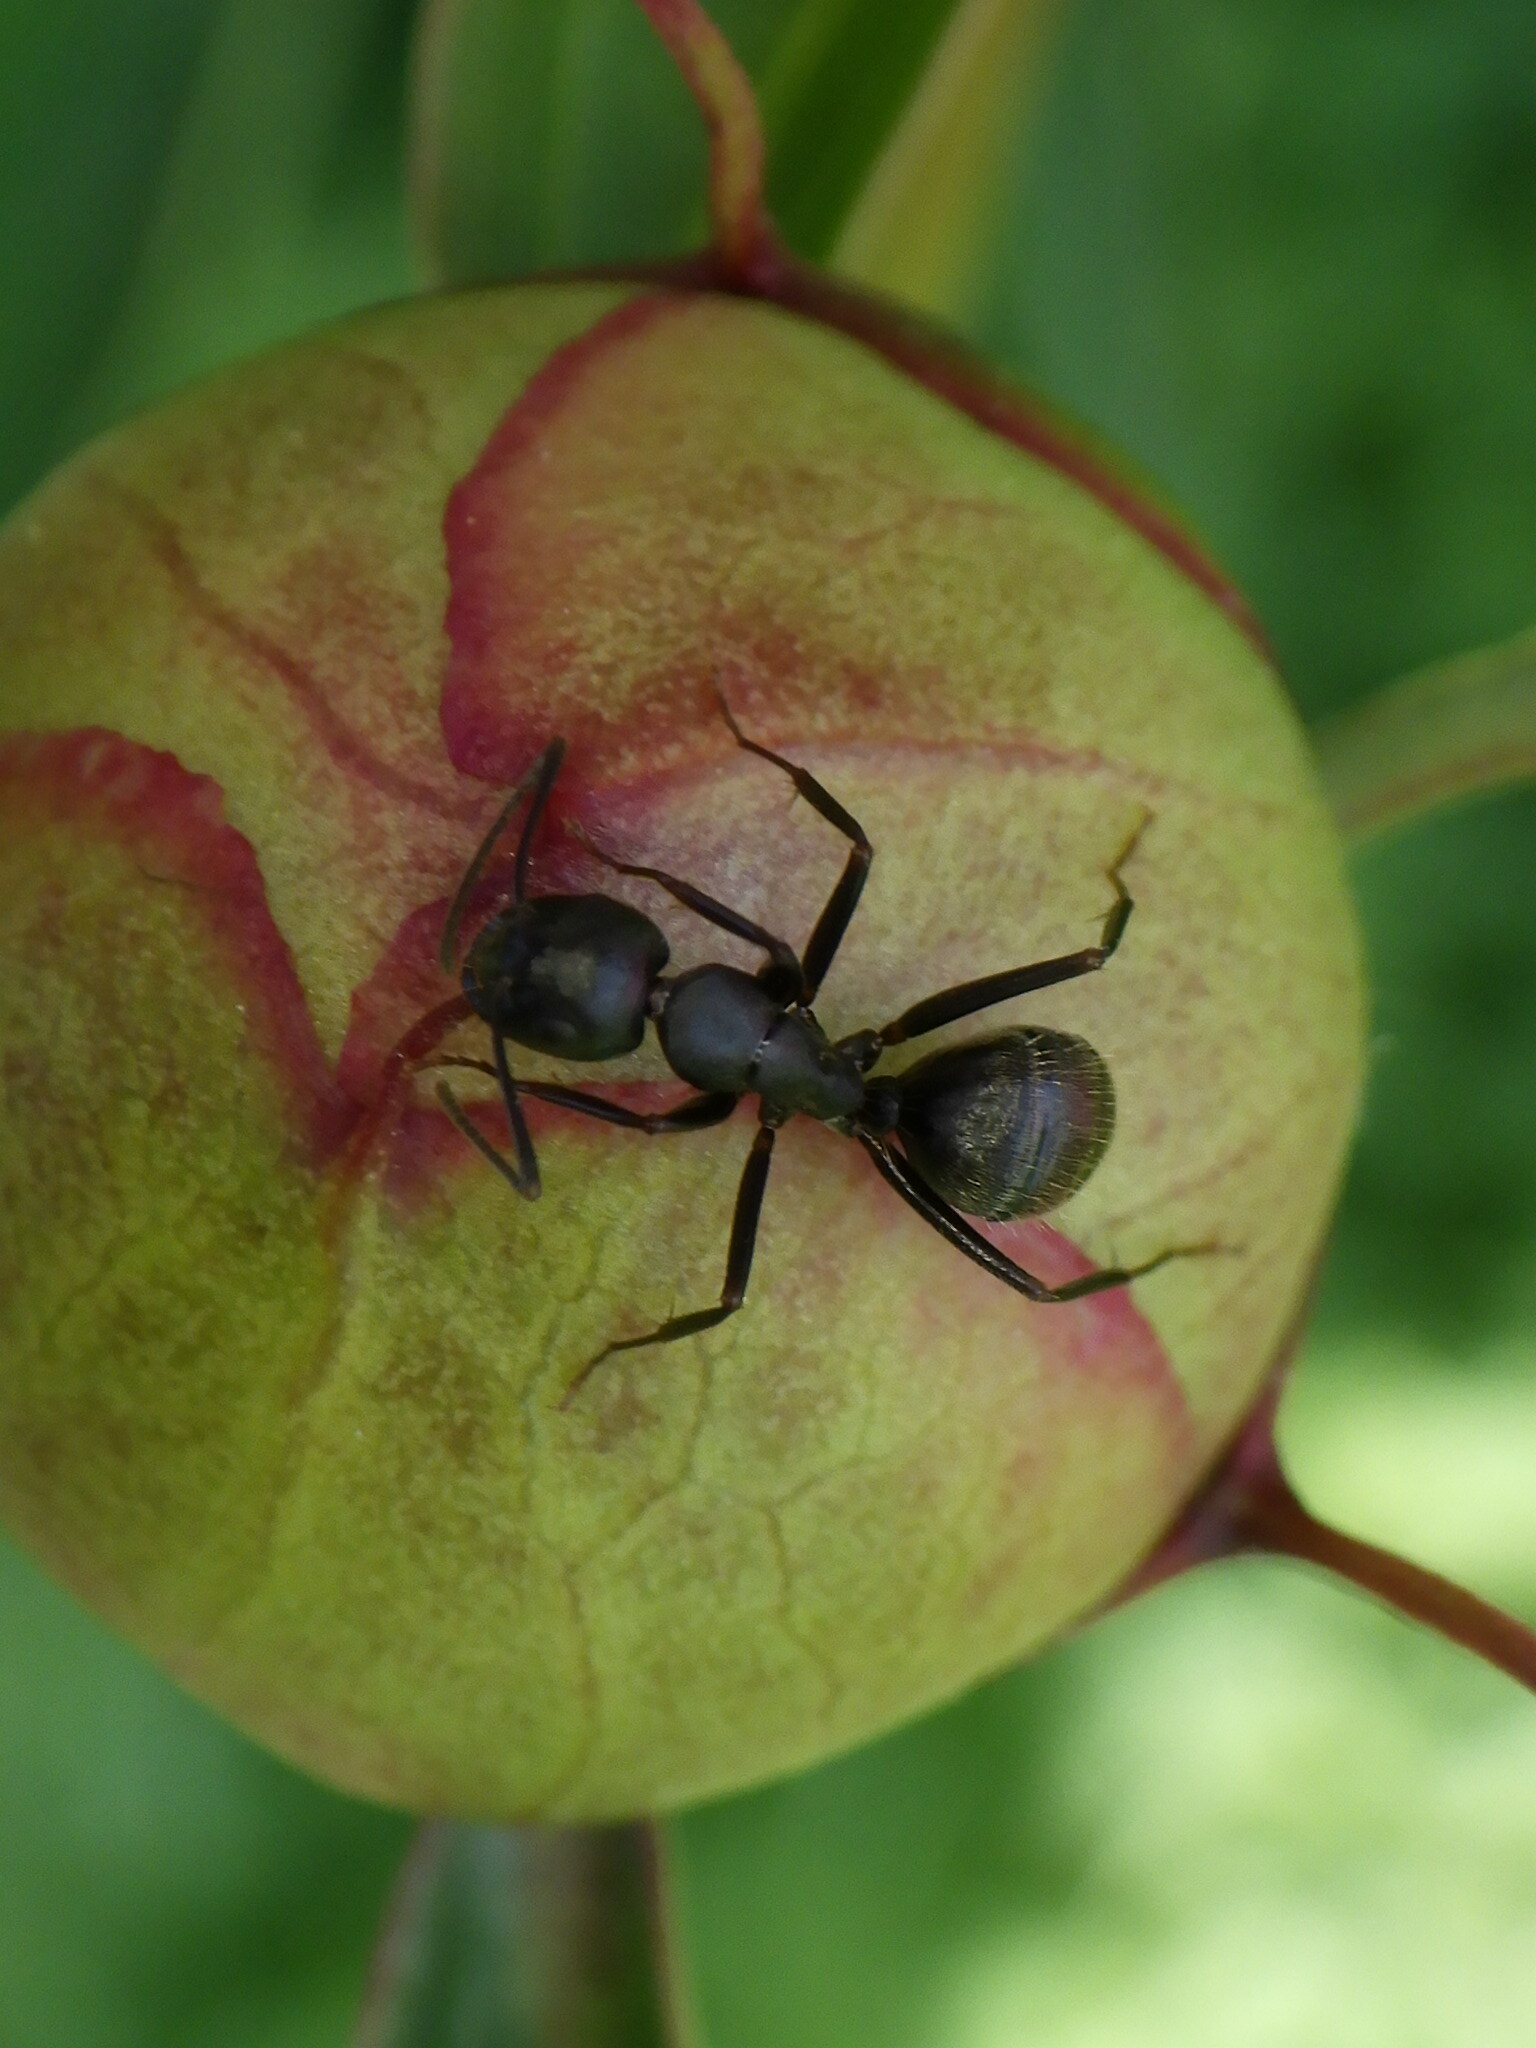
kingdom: Animalia
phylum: Arthropoda
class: Insecta
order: Hymenoptera
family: Formicidae
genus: Camponotus
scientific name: Camponotus pennsylvanicus
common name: Black carpenter ant
